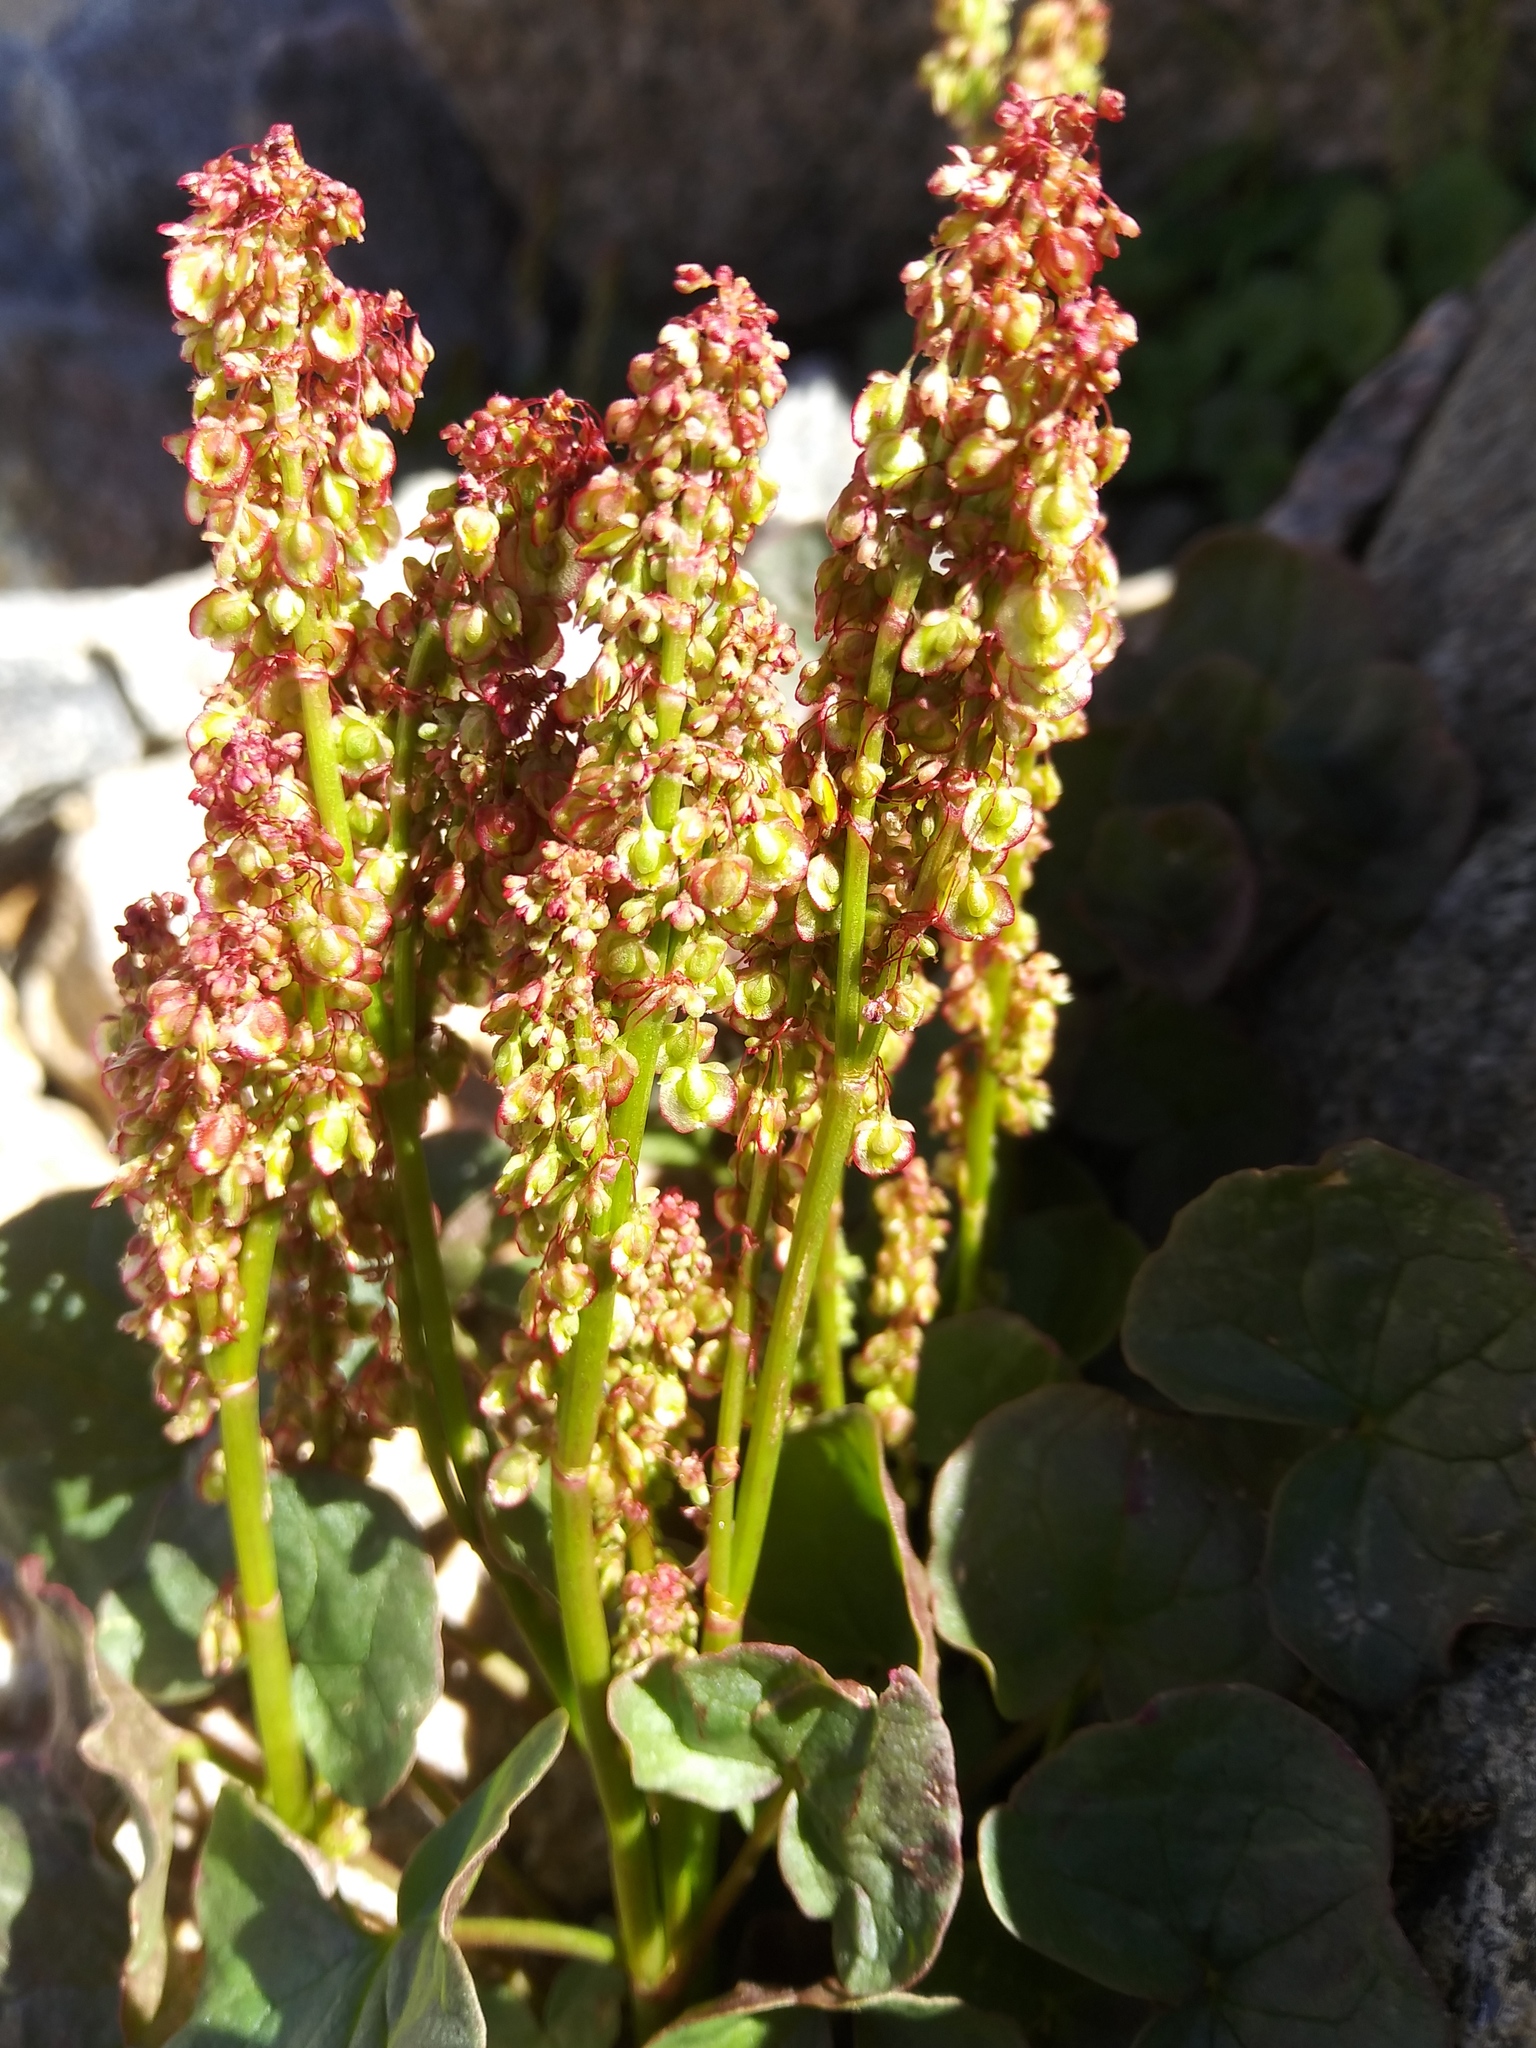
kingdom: Plantae
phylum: Tracheophyta
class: Magnoliopsida
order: Caryophyllales
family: Polygonaceae
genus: Oxyria
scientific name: Oxyria digyna
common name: Alpine mountain-sorrel
